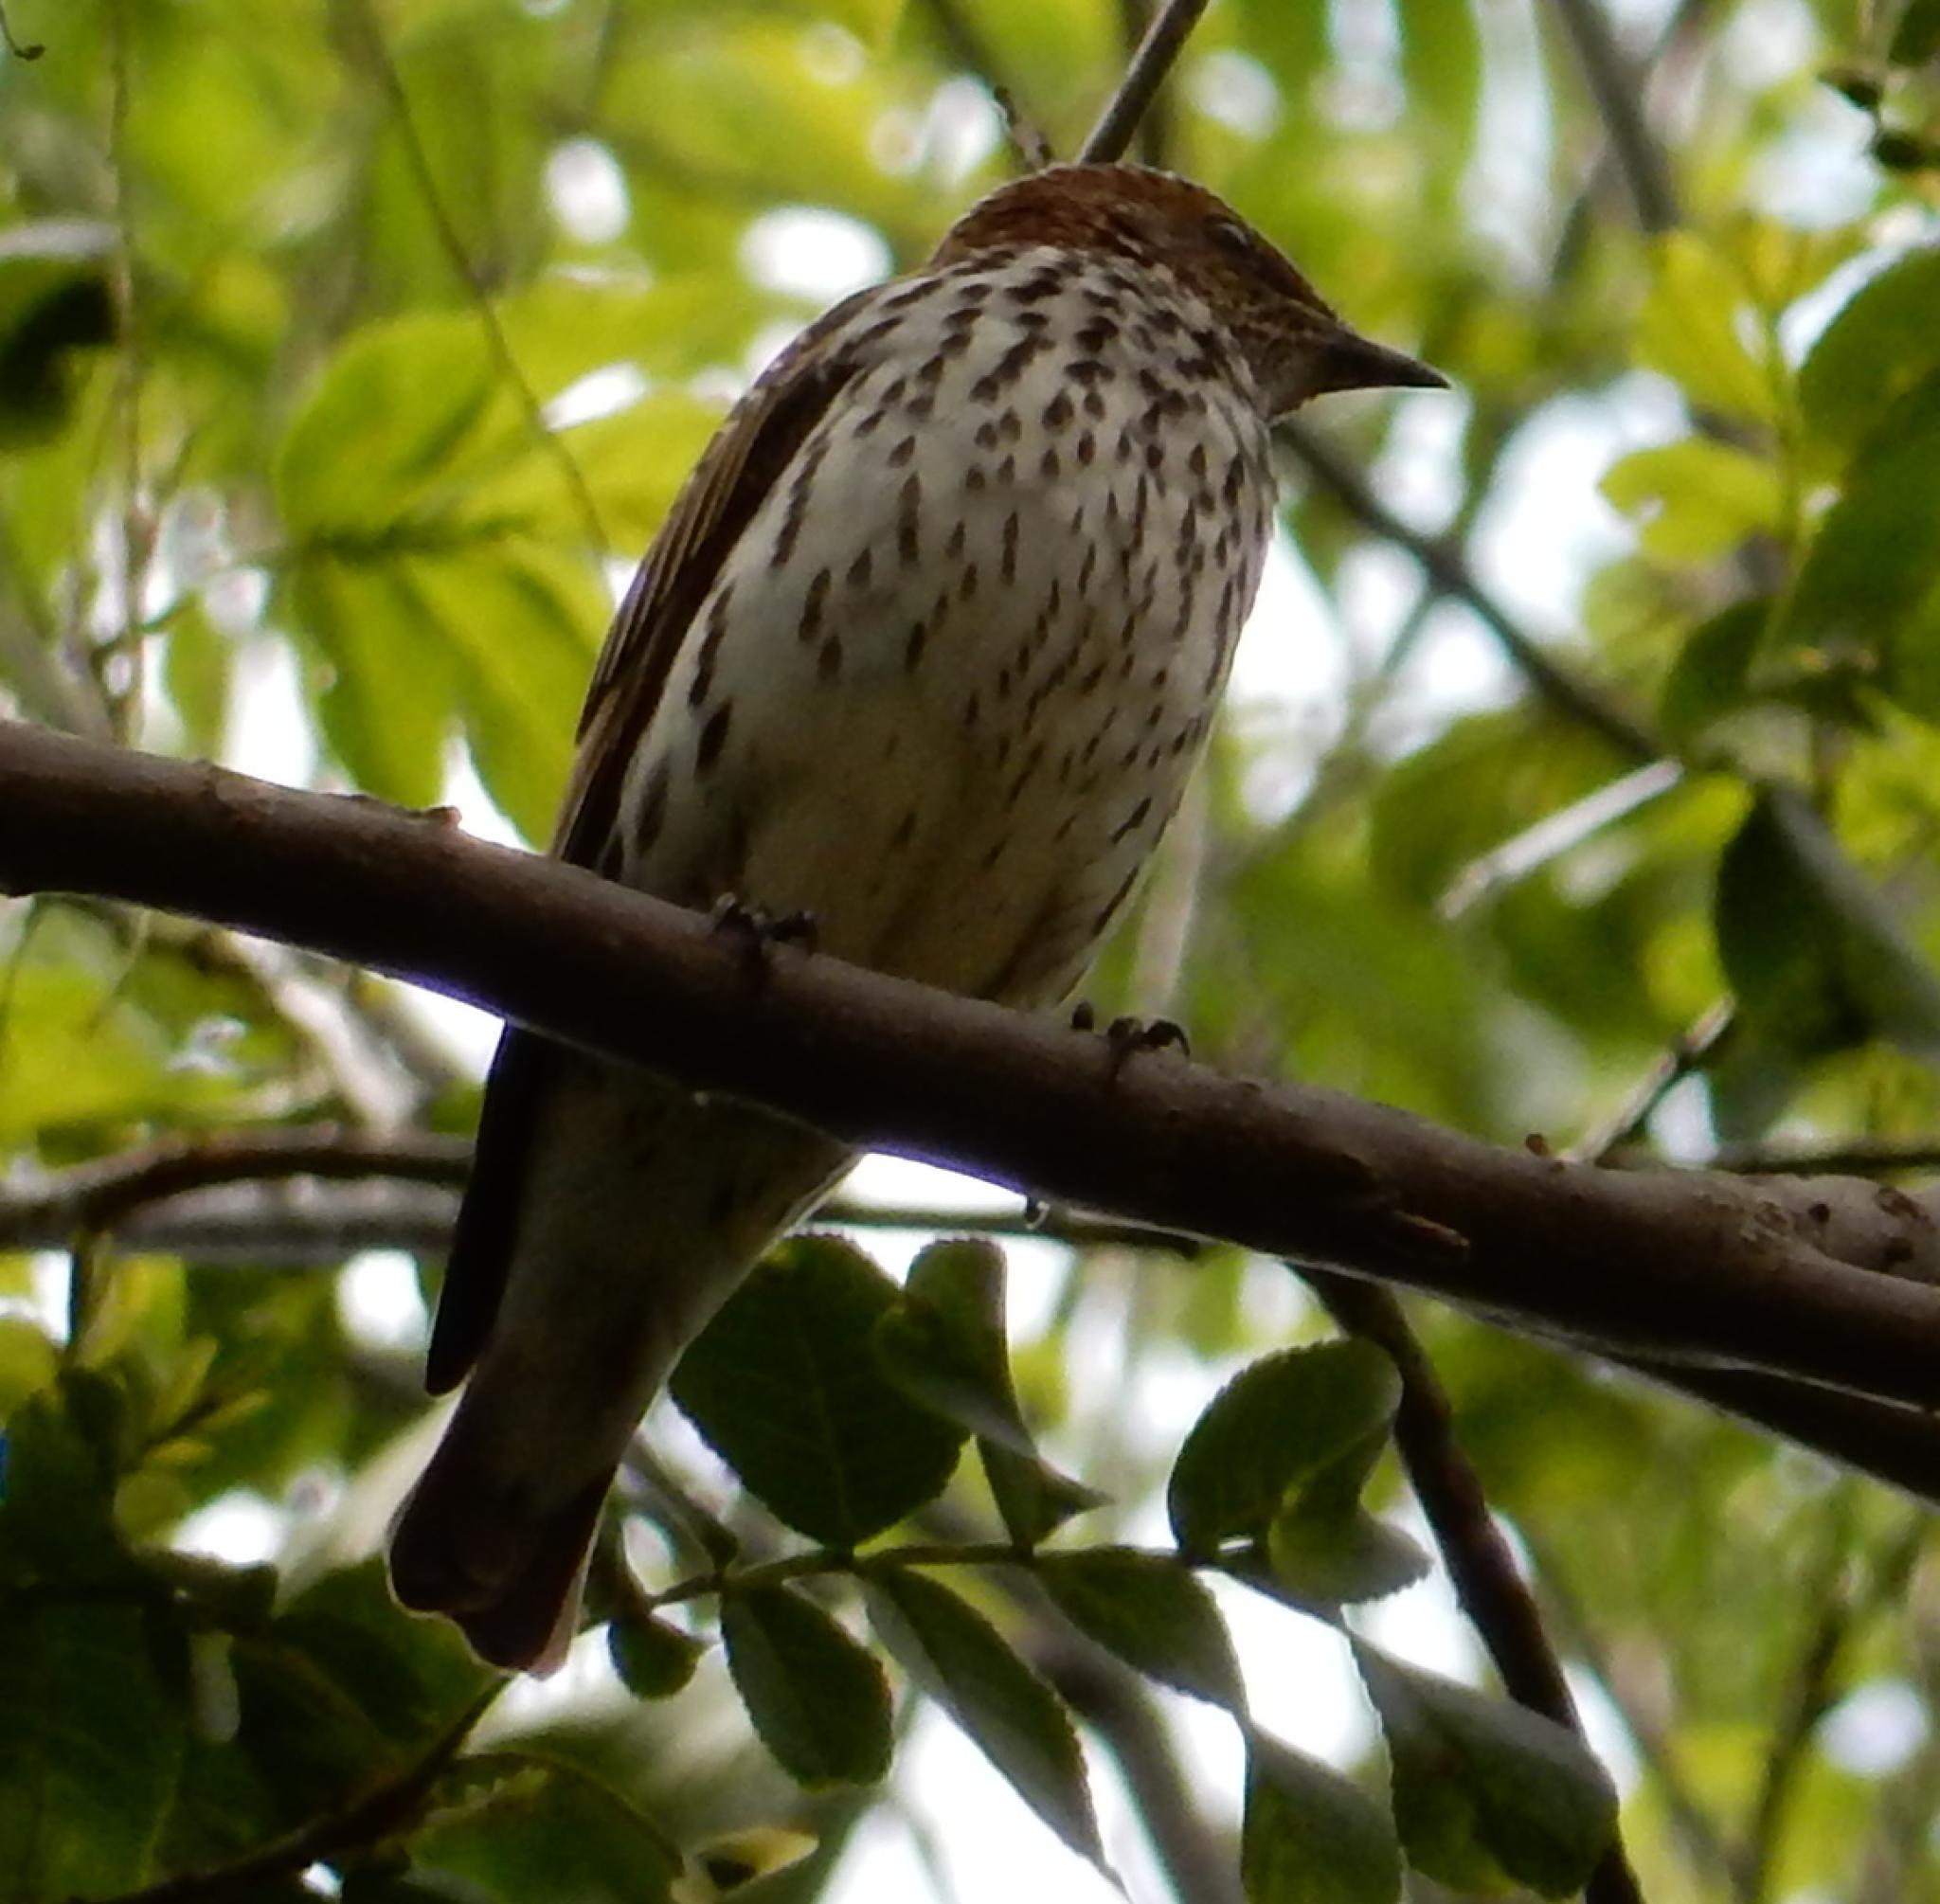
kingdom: Animalia
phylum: Chordata
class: Aves
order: Passeriformes
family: Sturnidae
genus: Cinnyricinclus
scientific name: Cinnyricinclus leucogaster
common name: Violet-backed starling
